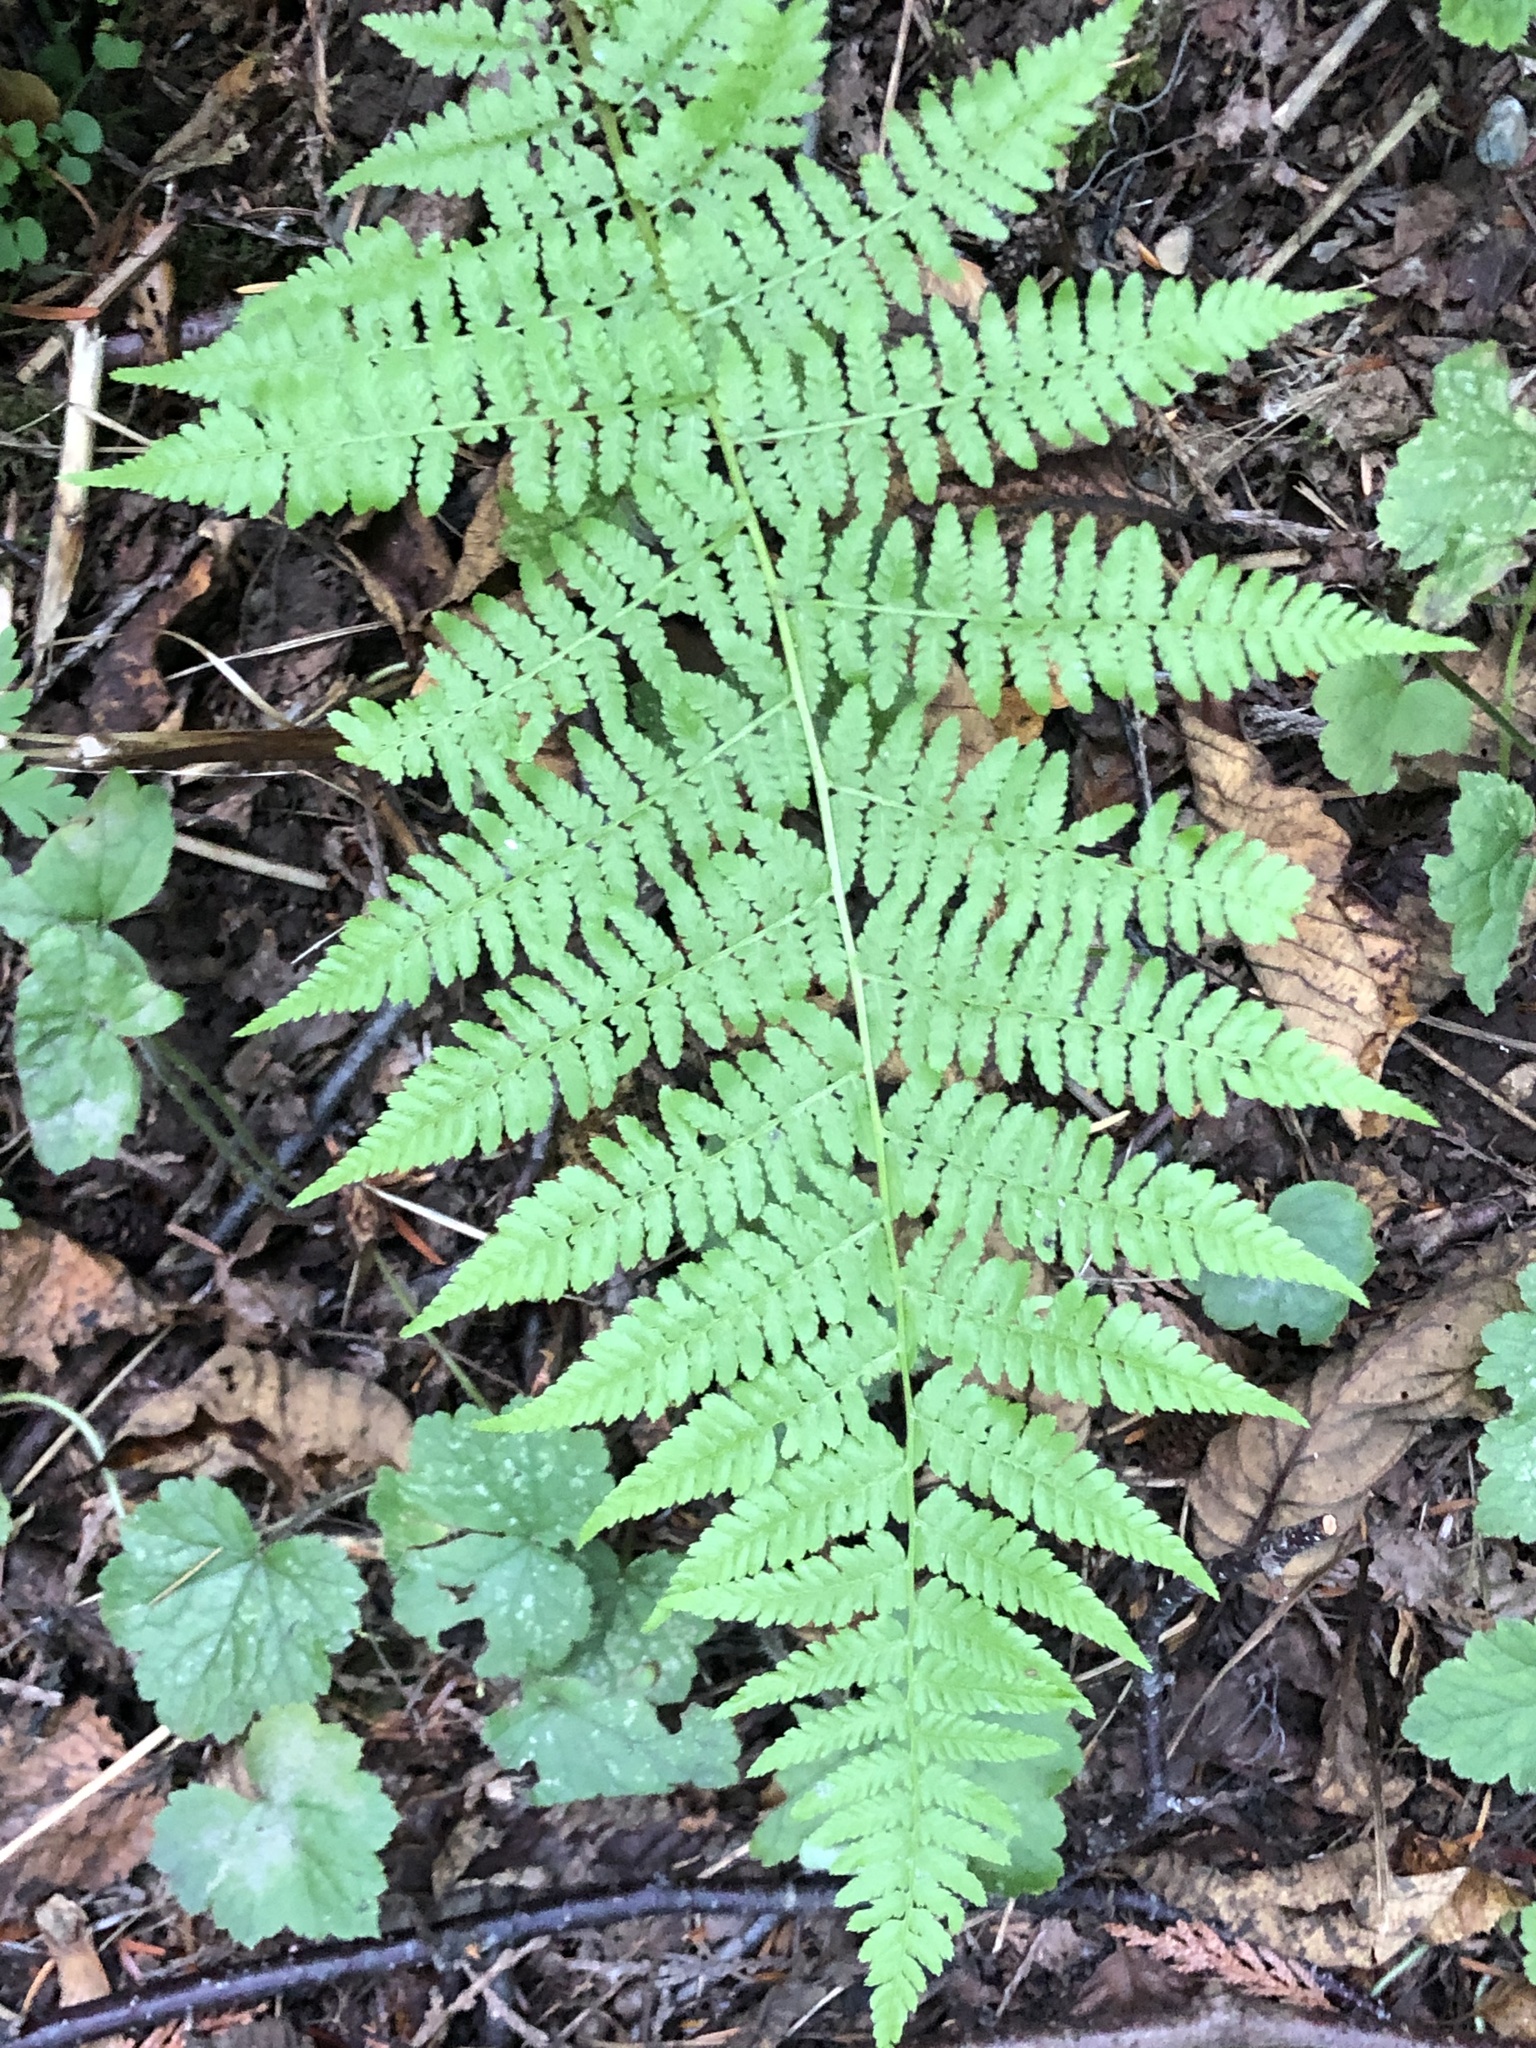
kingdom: Plantae
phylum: Tracheophyta
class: Polypodiopsida
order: Polypodiales
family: Athyriaceae
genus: Athyrium
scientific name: Athyrium filix-femina
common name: Lady fern
